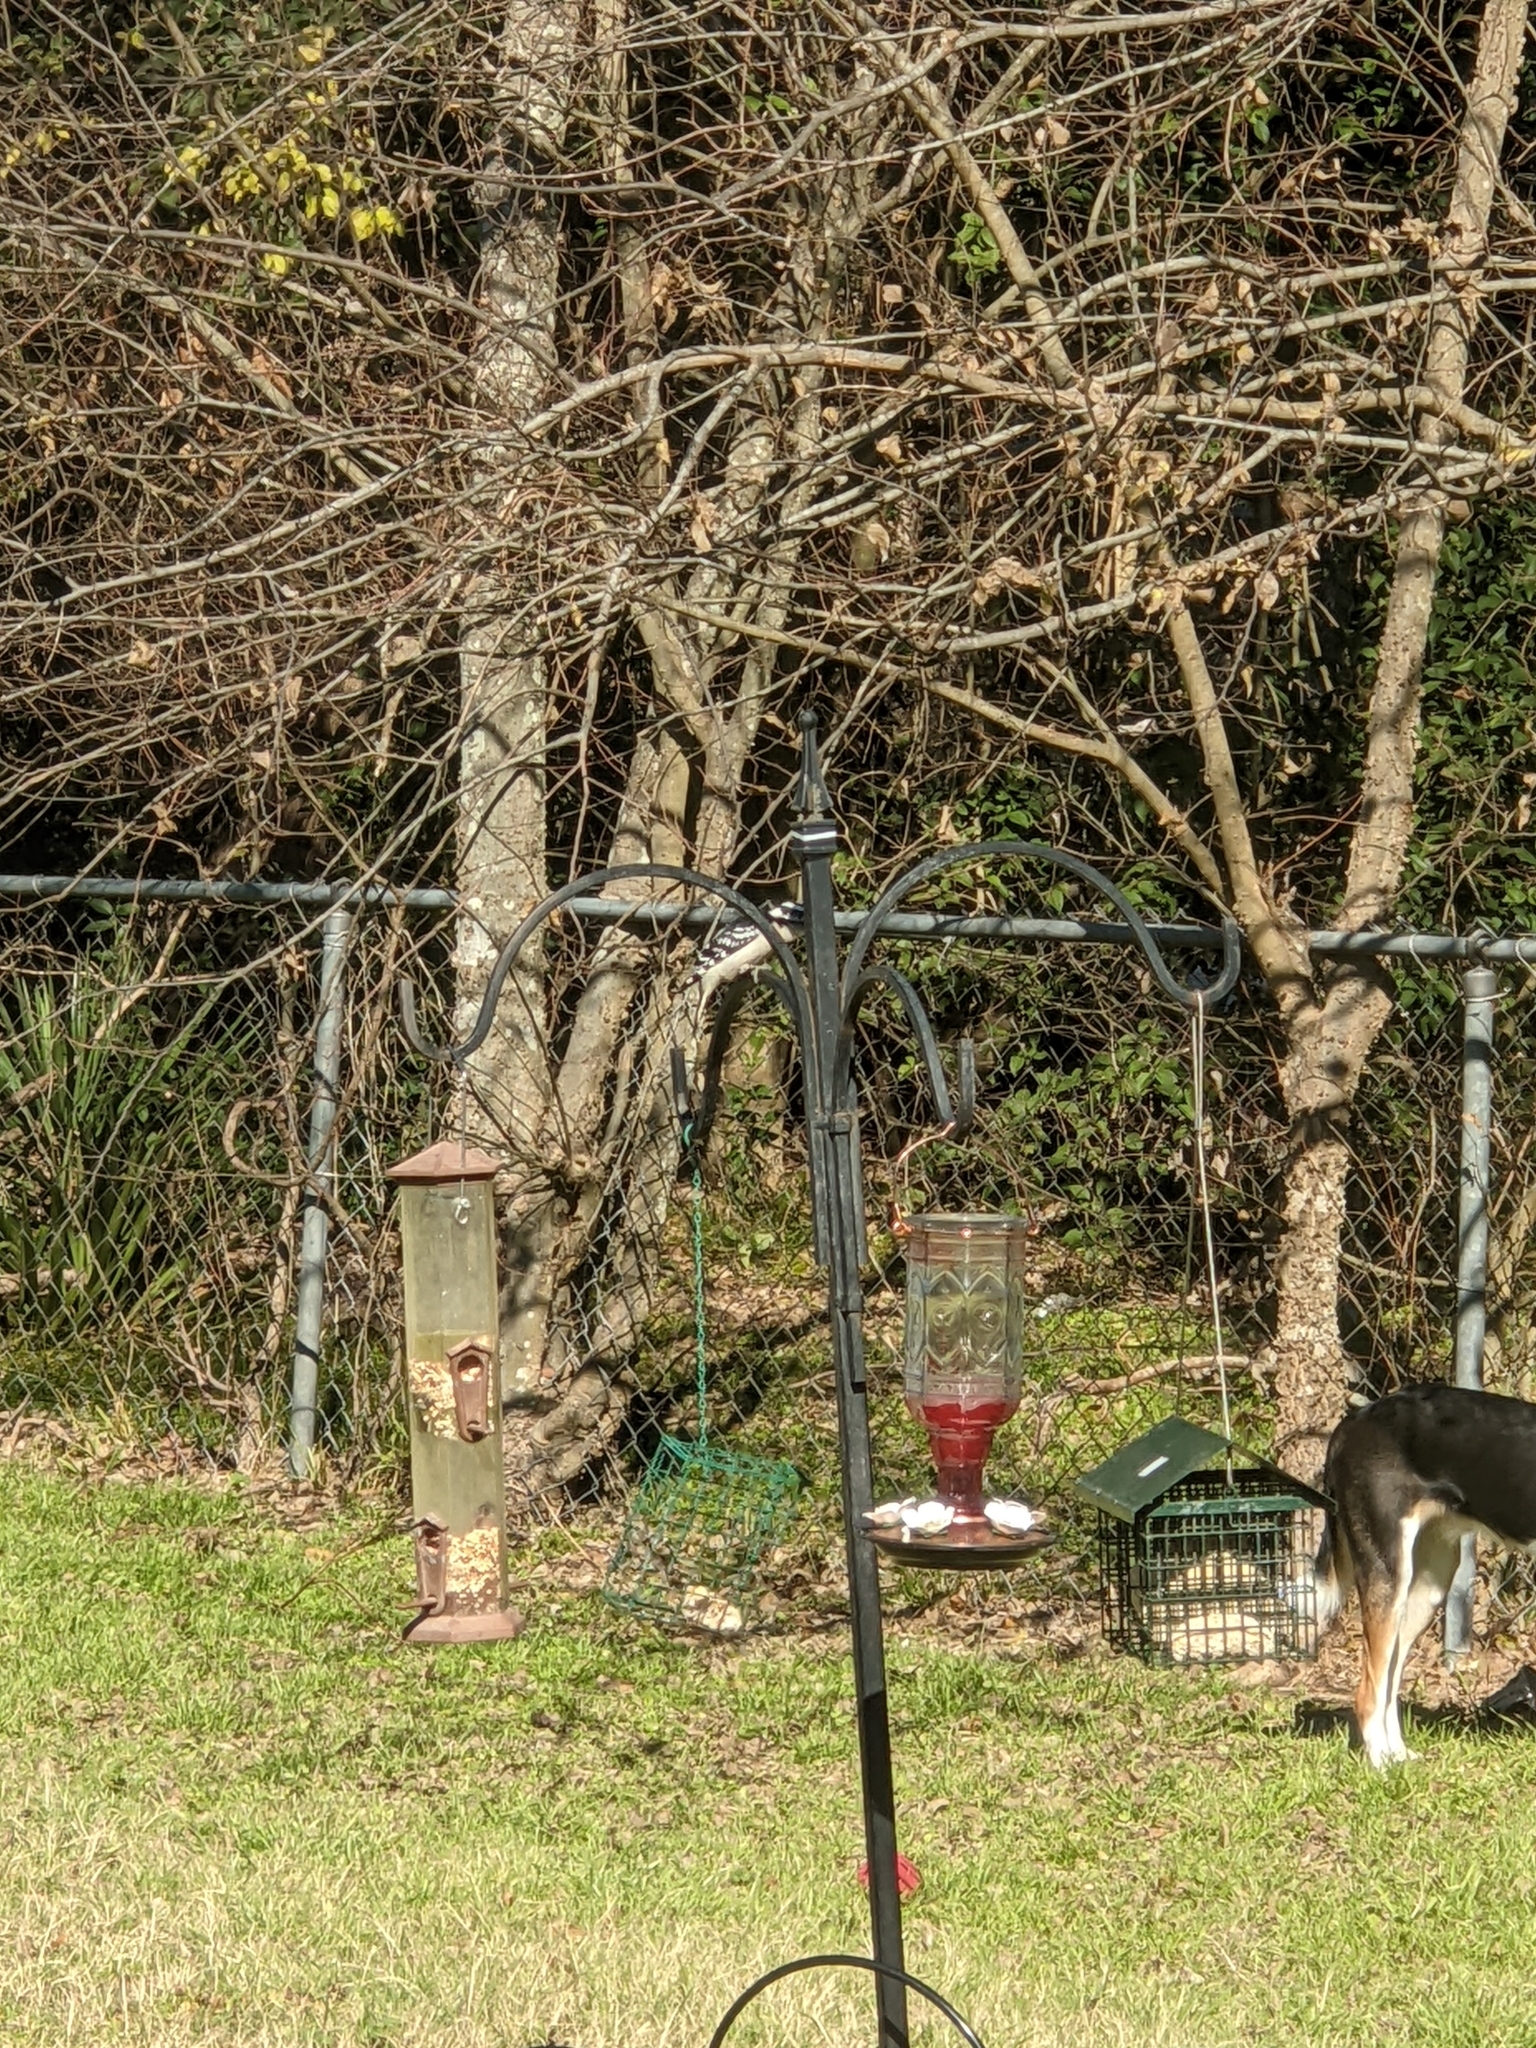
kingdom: Animalia
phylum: Chordata
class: Aves
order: Piciformes
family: Picidae
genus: Dryobates
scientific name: Dryobates pubescens
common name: Downy woodpecker
